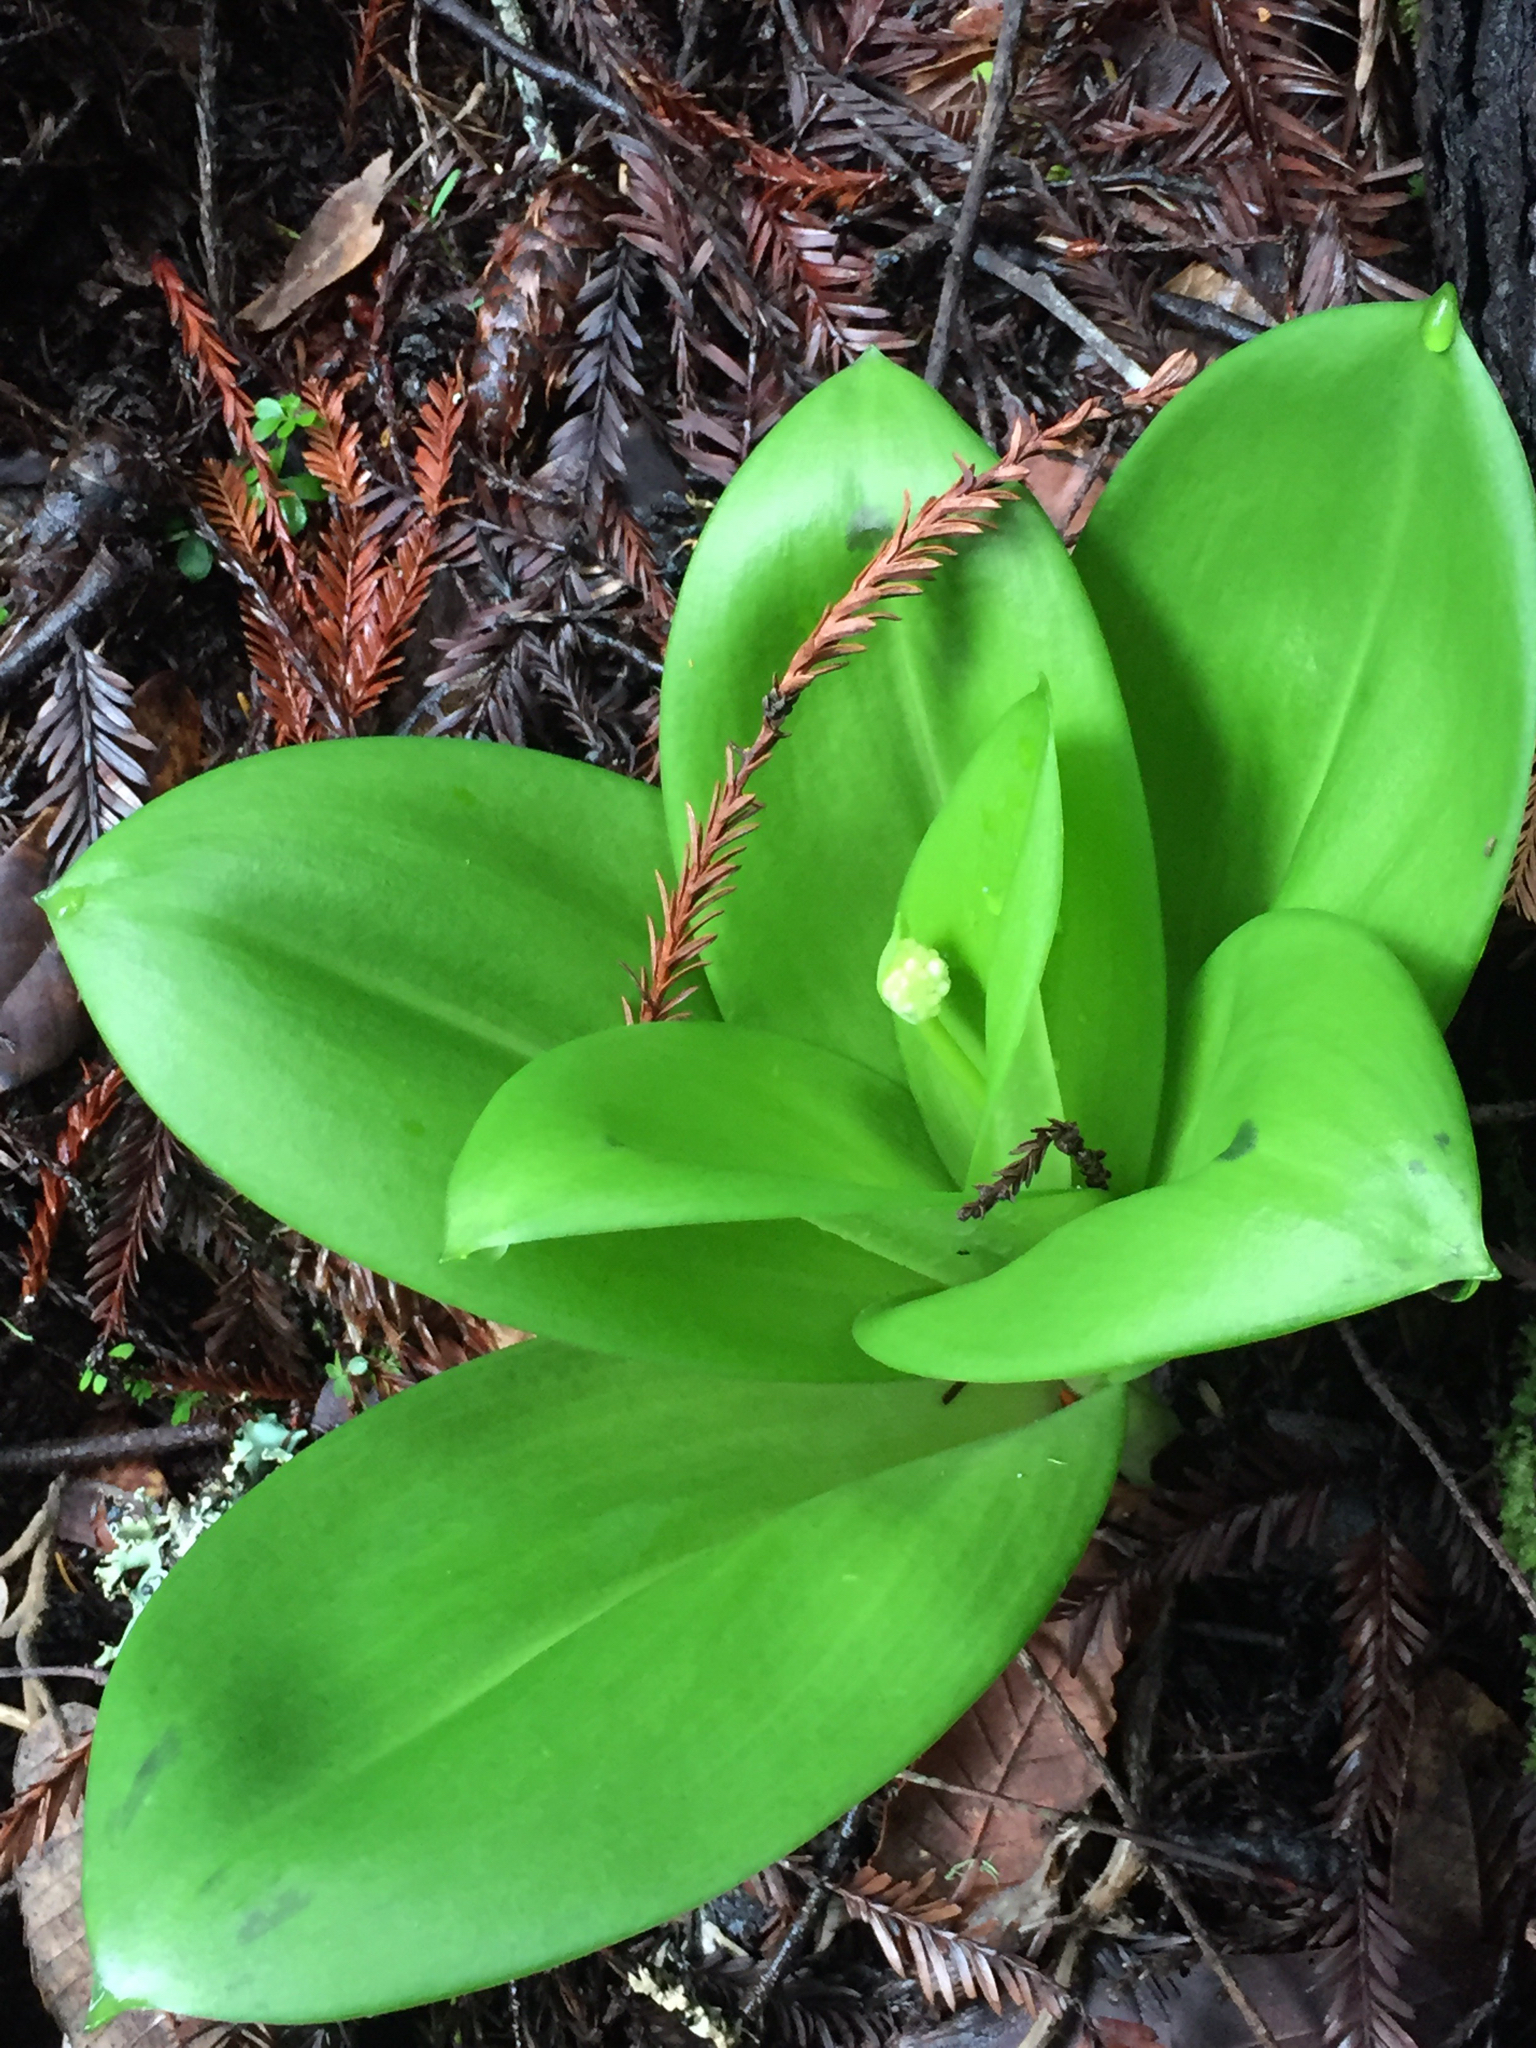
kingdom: Plantae
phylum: Tracheophyta
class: Liliopsida
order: Liliales
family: Liliaceae
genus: Clintonia
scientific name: Clintonia andrewsiana
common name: Red clintonia
